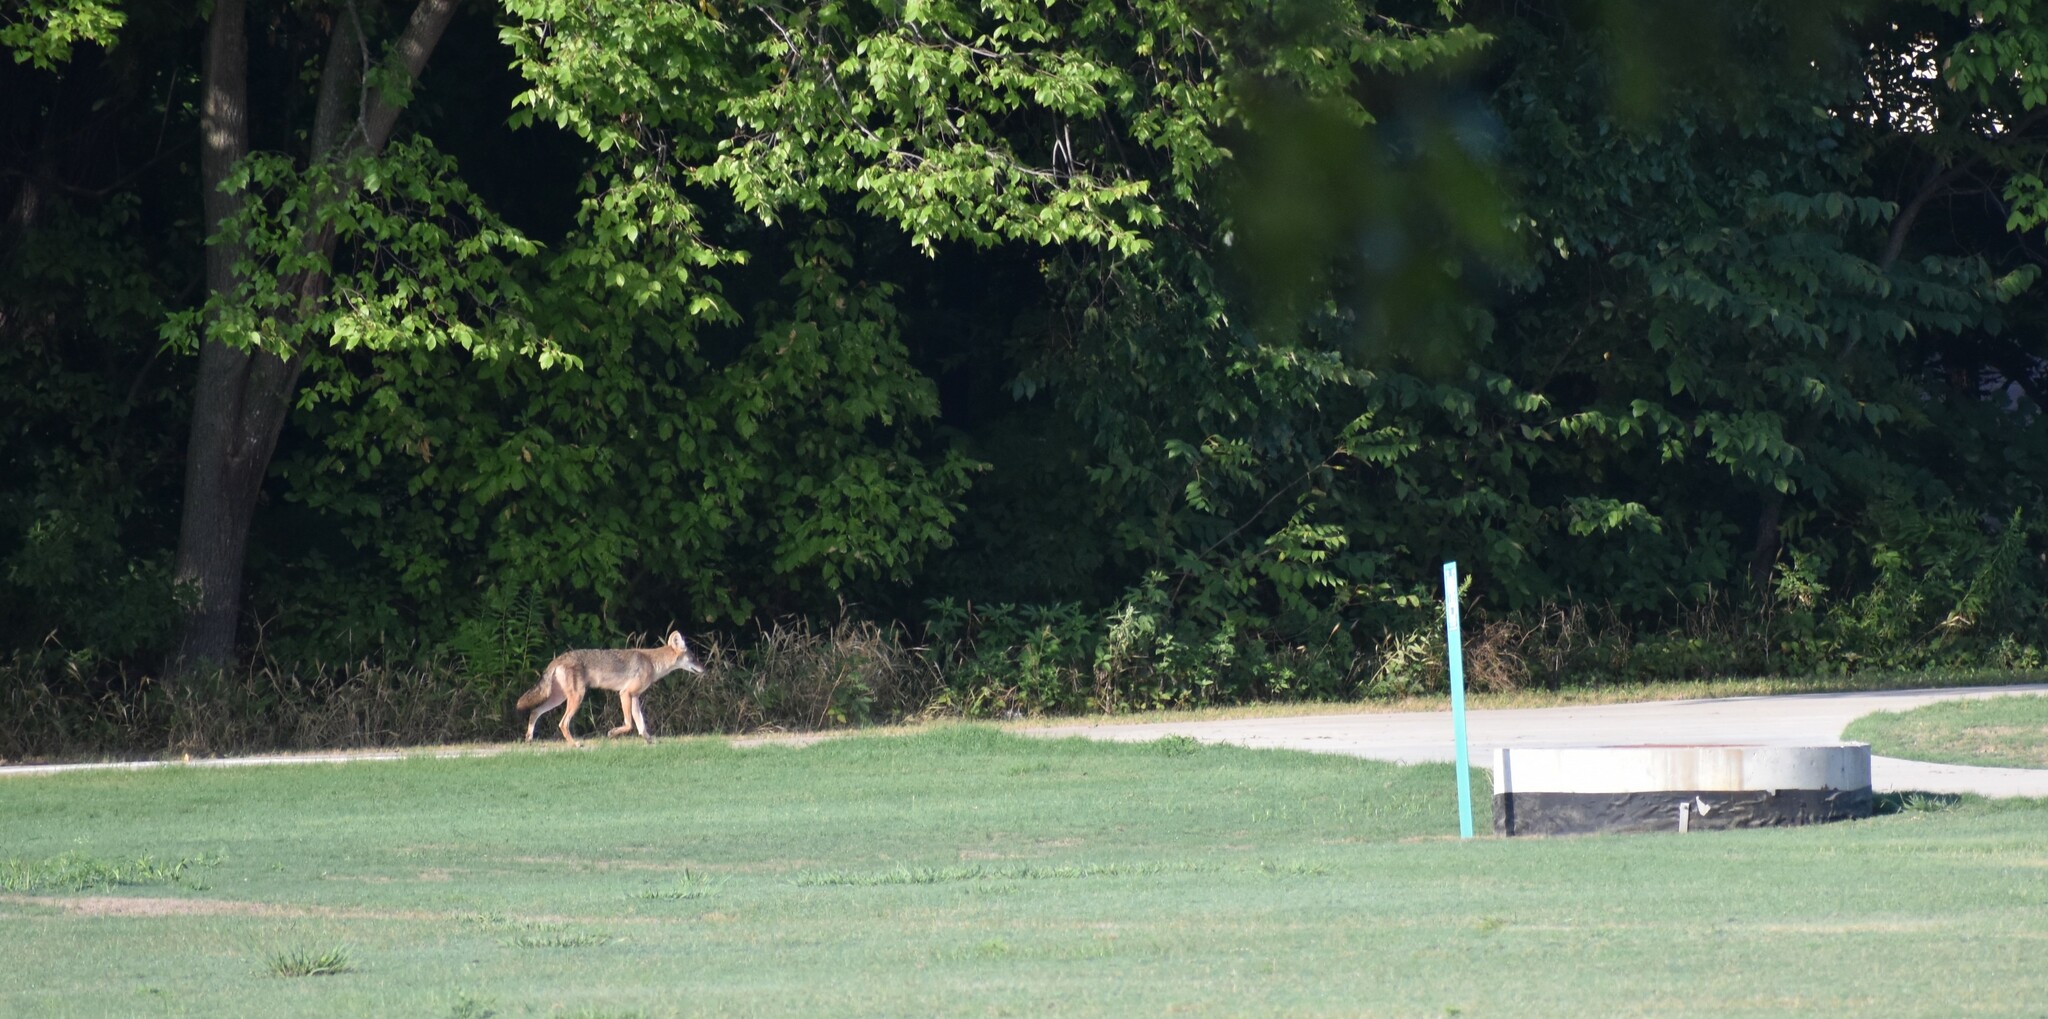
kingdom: Animalia
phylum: Chordata
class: Mammalia
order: Carnivora
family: Canidae
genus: Canis
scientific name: Canis latrans
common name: Coyote
